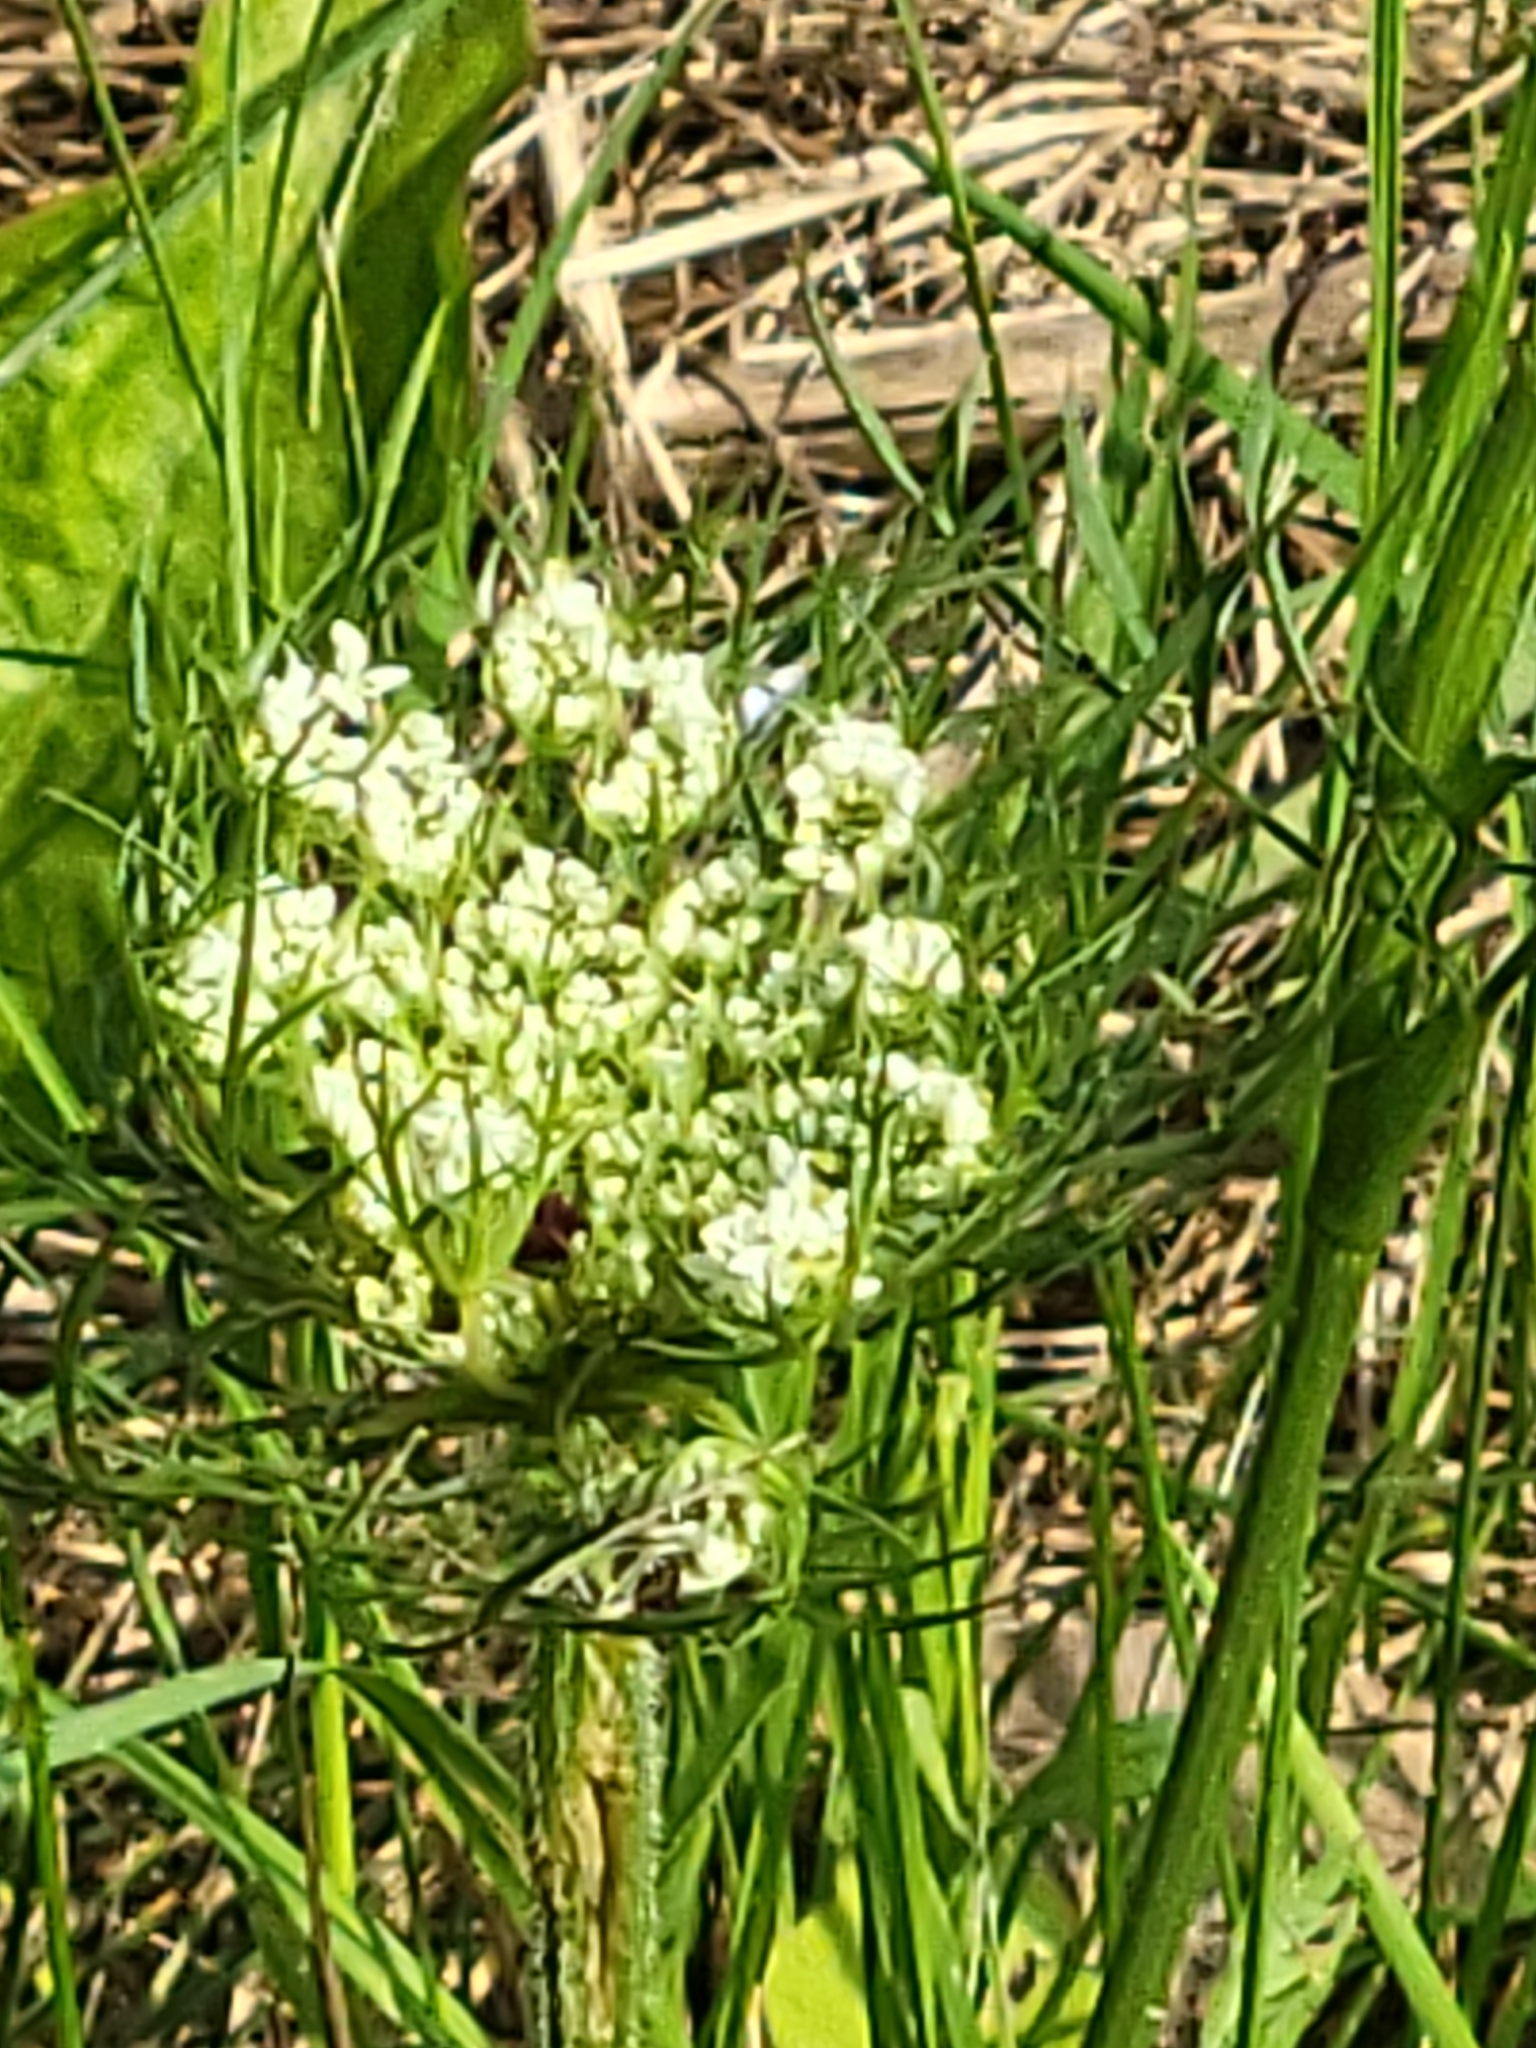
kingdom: Plantae
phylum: Tracheophyta
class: Magnoliopsida
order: Apiales
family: Apiaceae
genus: Daucus
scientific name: Daucus carota
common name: Wild carrot
